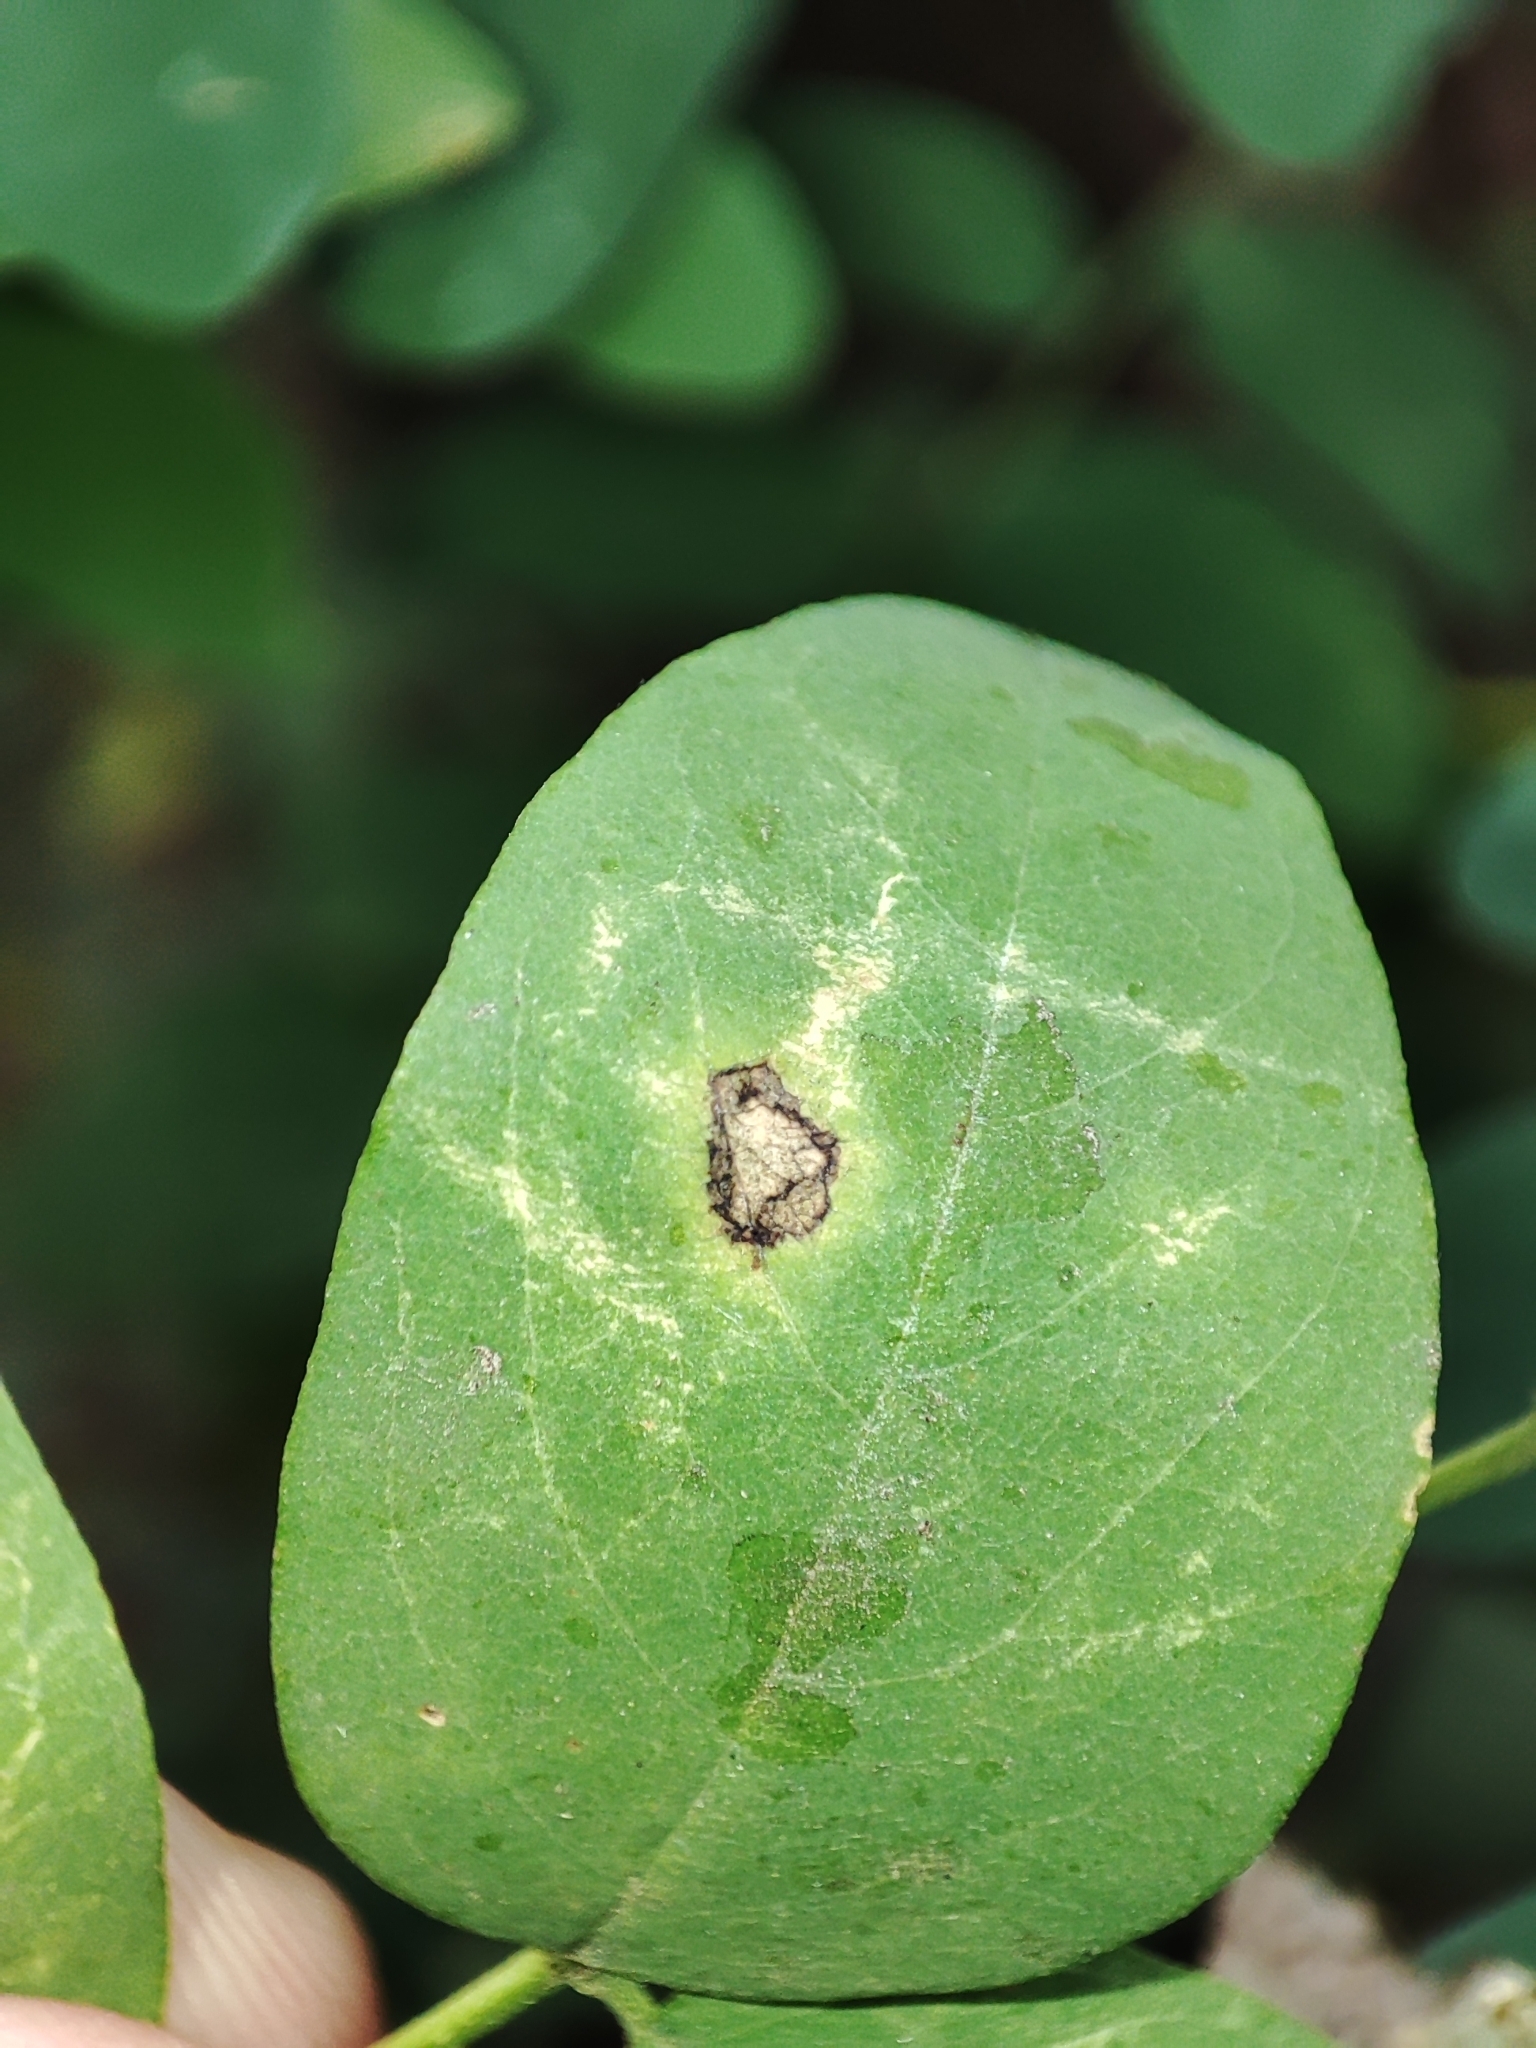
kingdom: Plantae
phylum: Tracheophyta
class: Magnoliopsida
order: Fabales
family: Fabaceae
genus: Robinia
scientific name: Robinia pseudoacacia
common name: Black locust
